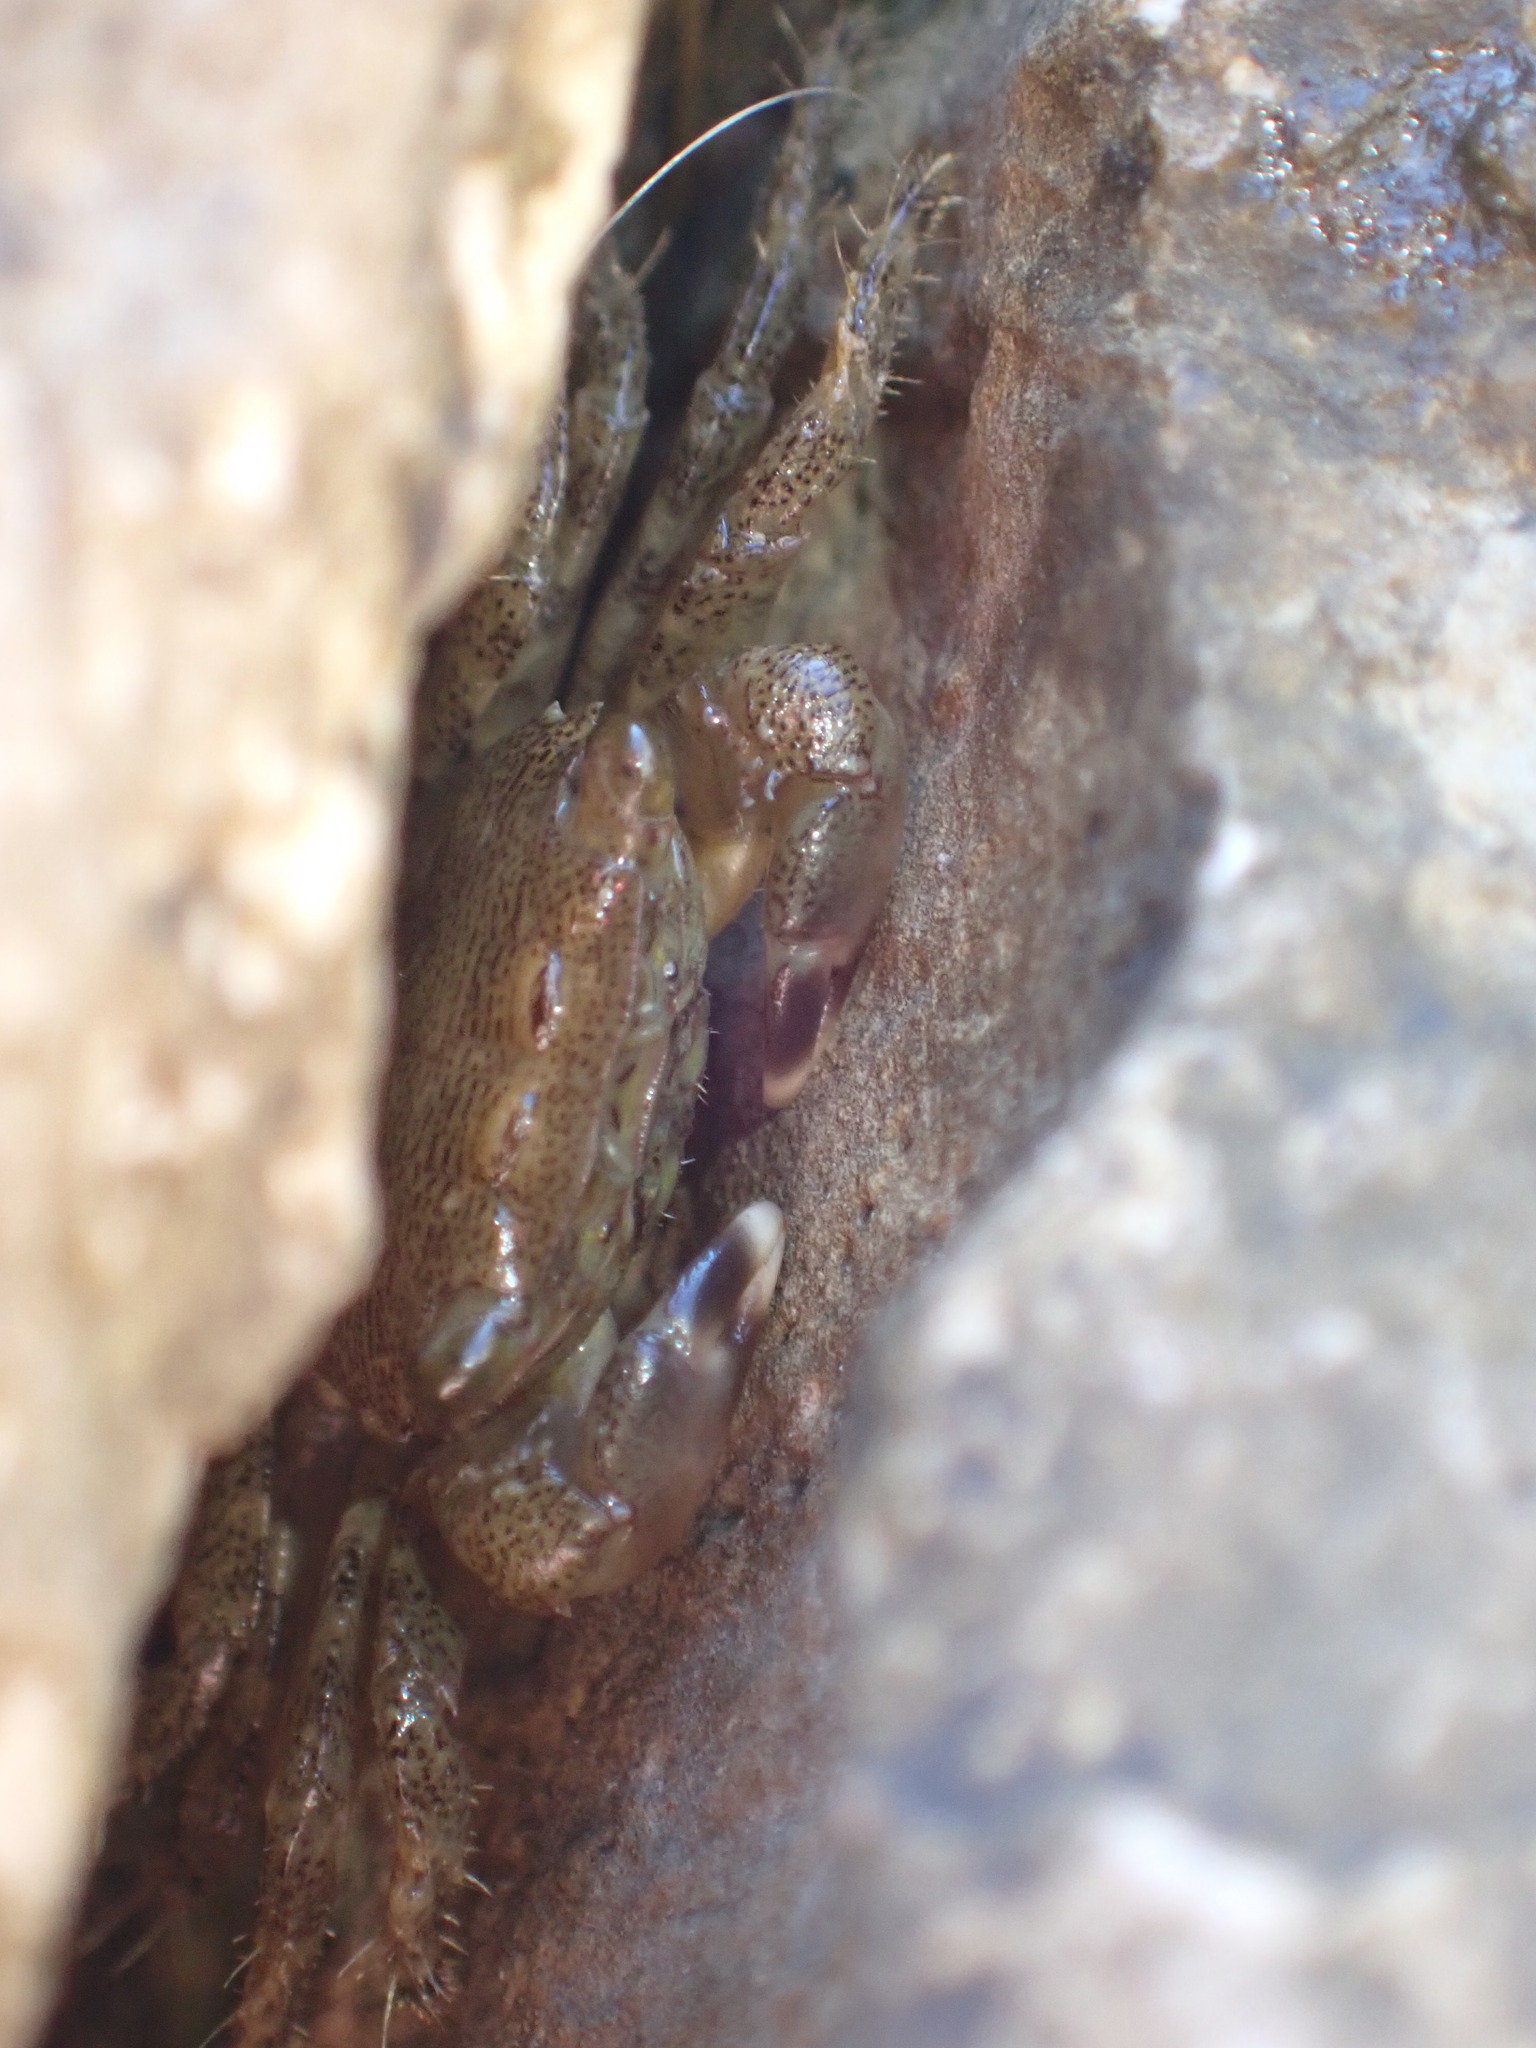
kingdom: Animalia
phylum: Arthropoda
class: Malacostraca
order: Decapoda
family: Grapsidae
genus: Pachygrapsus
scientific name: Pachygrapsus marmoratus
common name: Marbled rock crab
